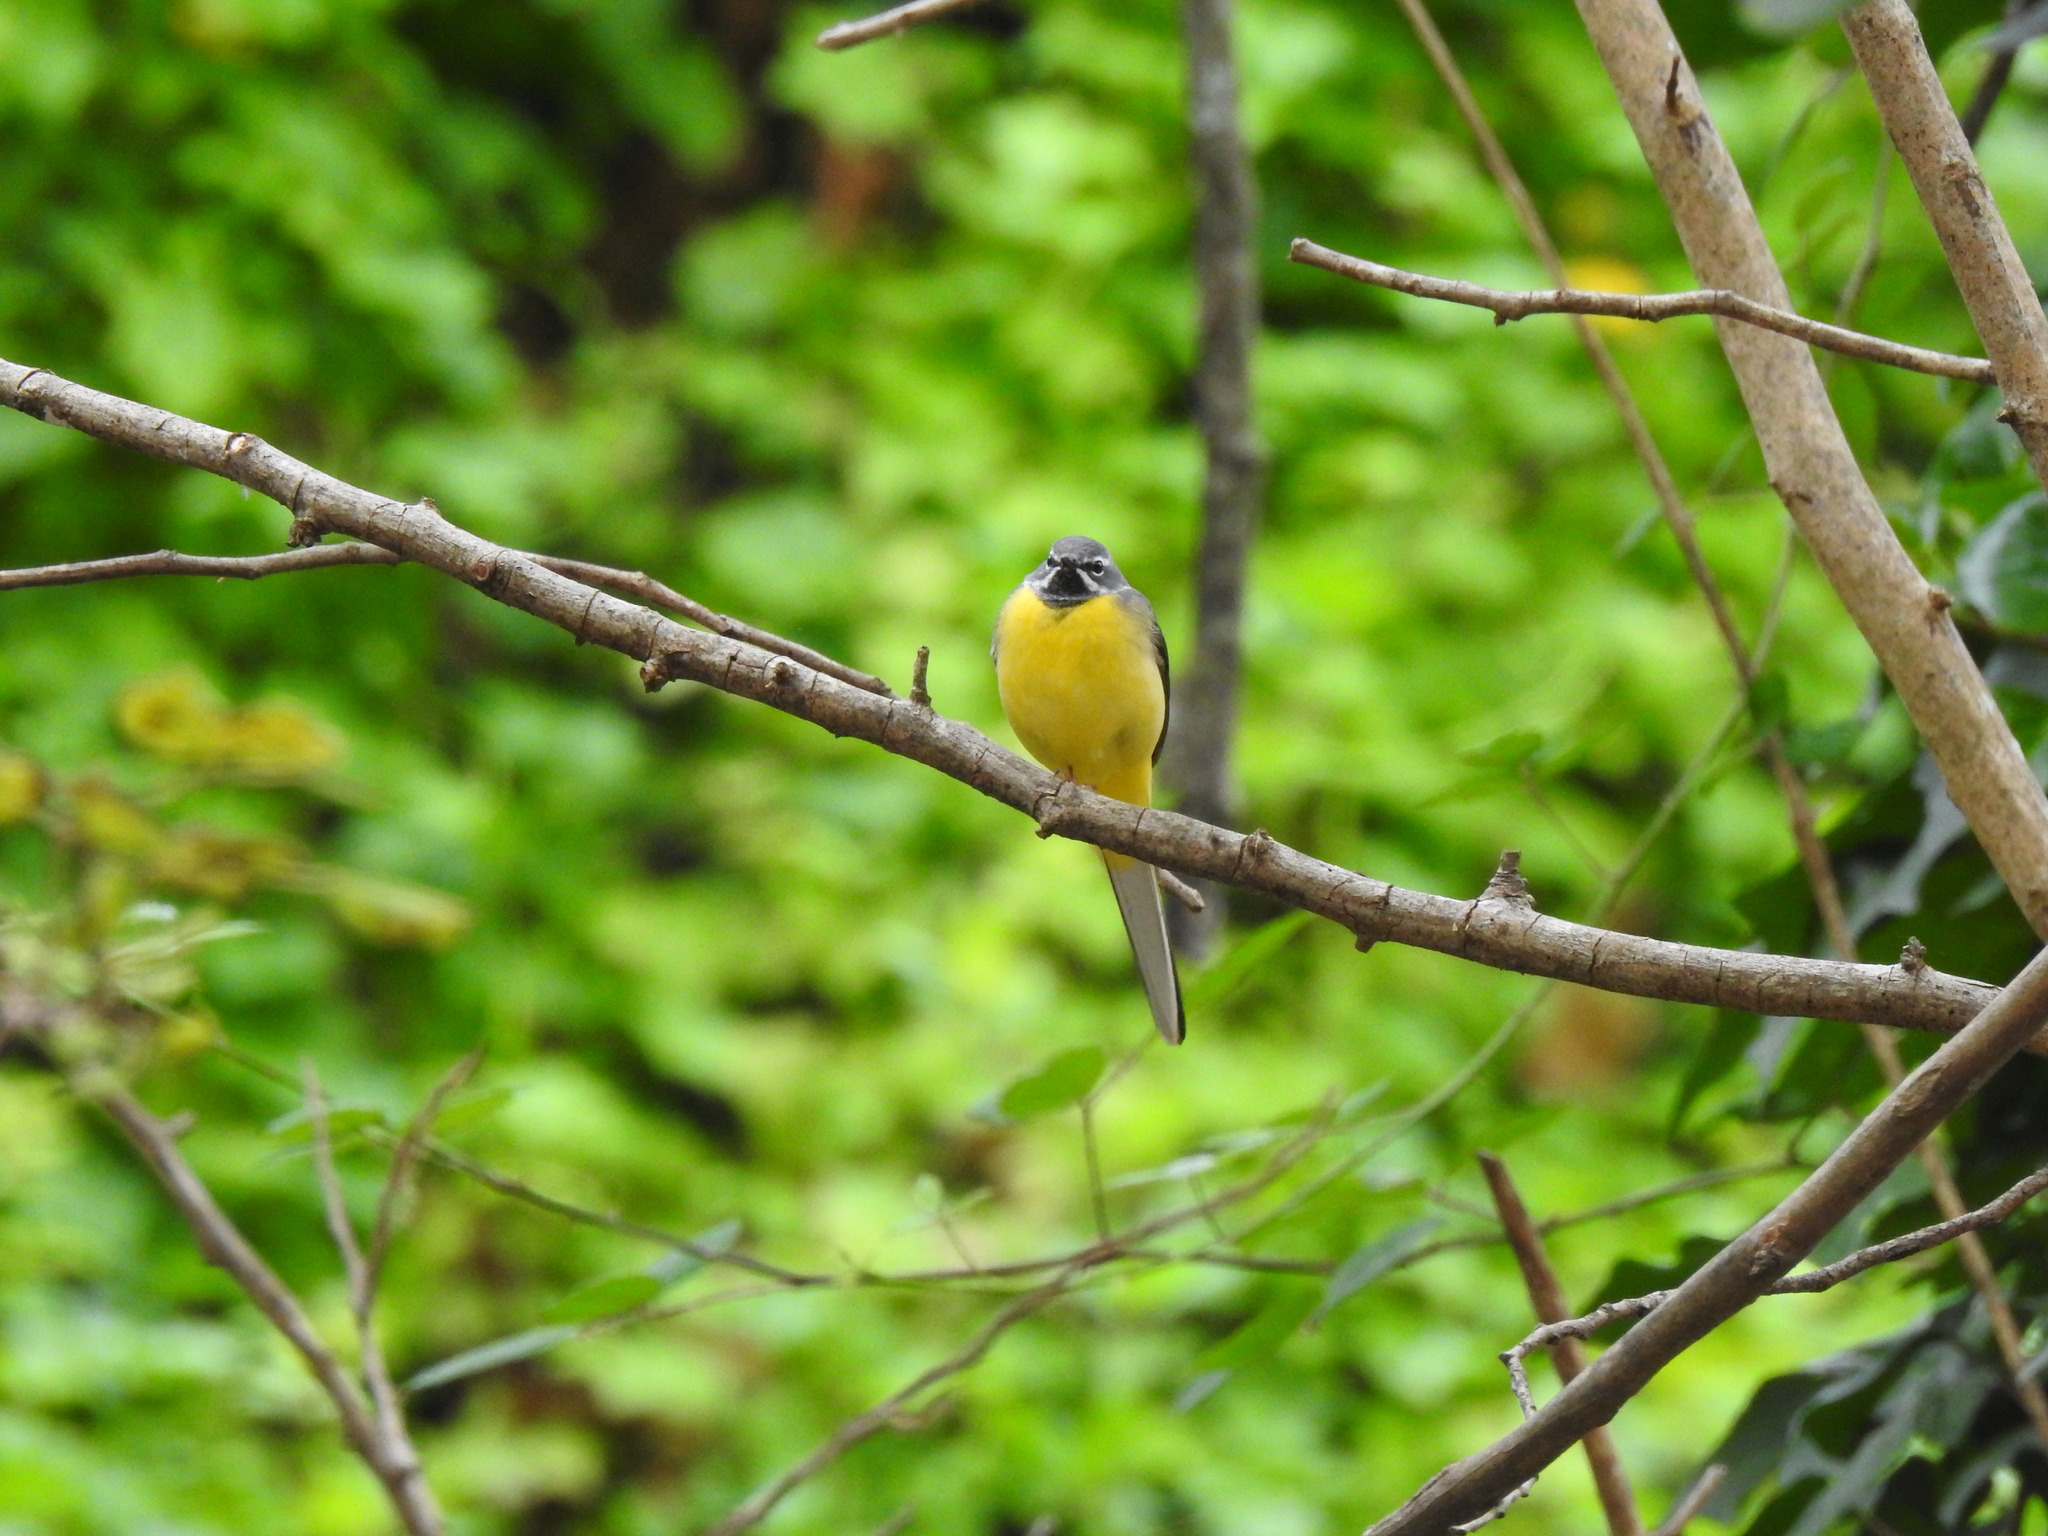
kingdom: Animalia
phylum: Chordata
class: Aves
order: Passeriformes
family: Motacillidae
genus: Motacilla
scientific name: Motacilla cinerea
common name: Grey wagtail
